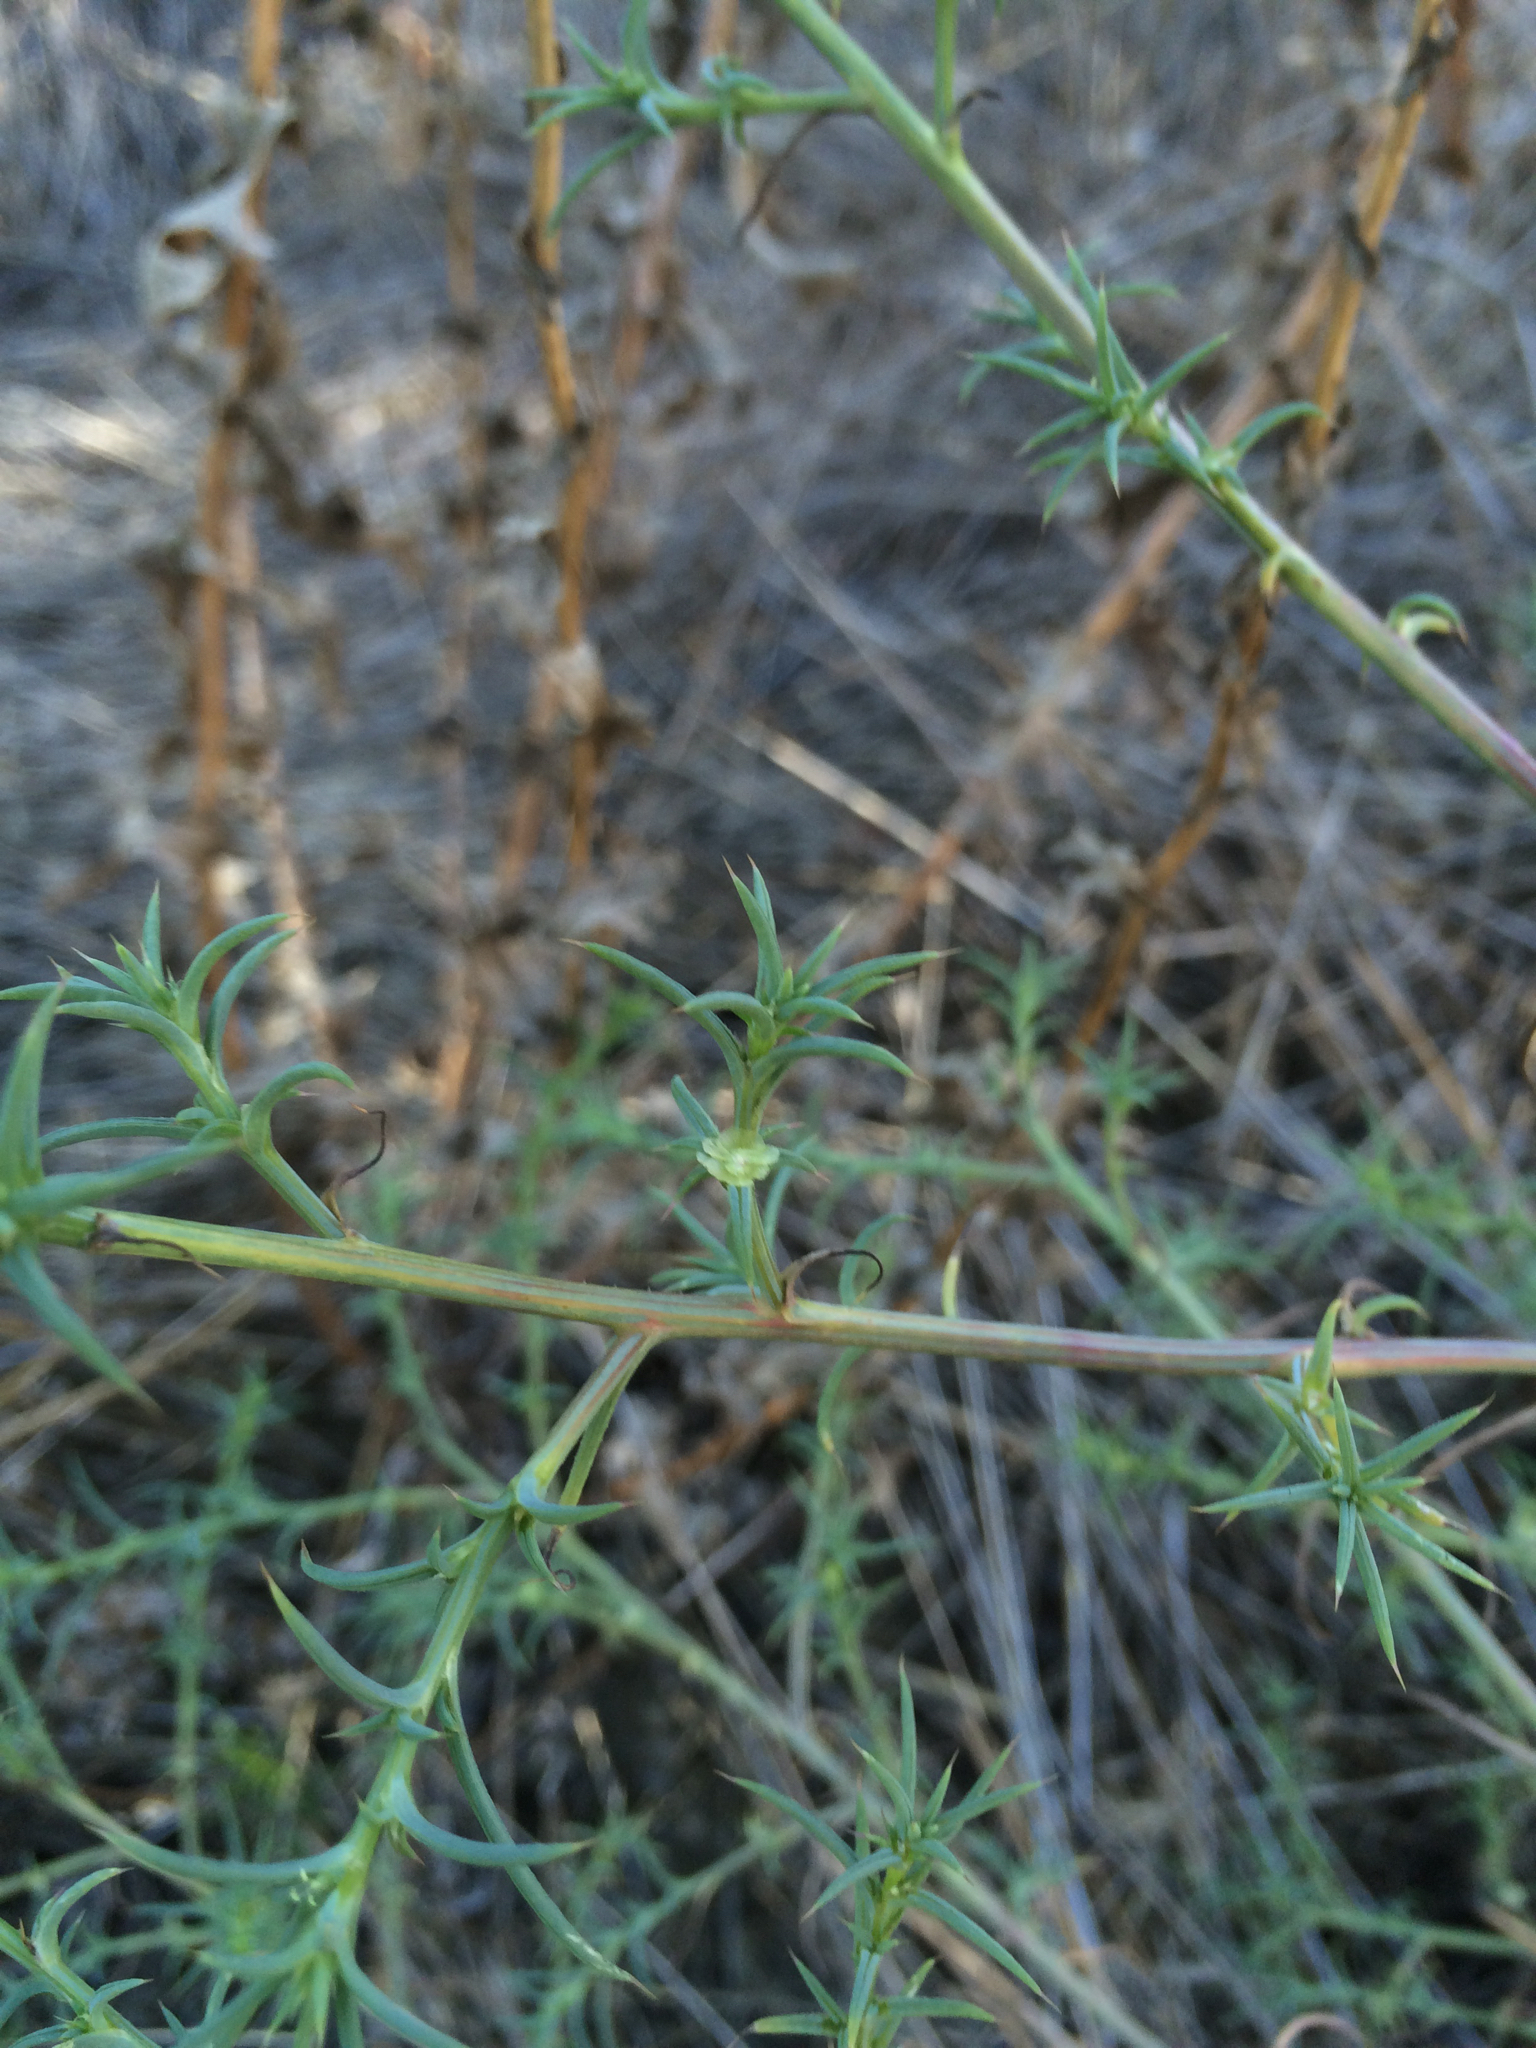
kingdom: Plantae
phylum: Tracheophyta
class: Magnoliopsida
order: Caryophyllales
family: Amaranthaceae
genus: Salsola
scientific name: Salsola australis
